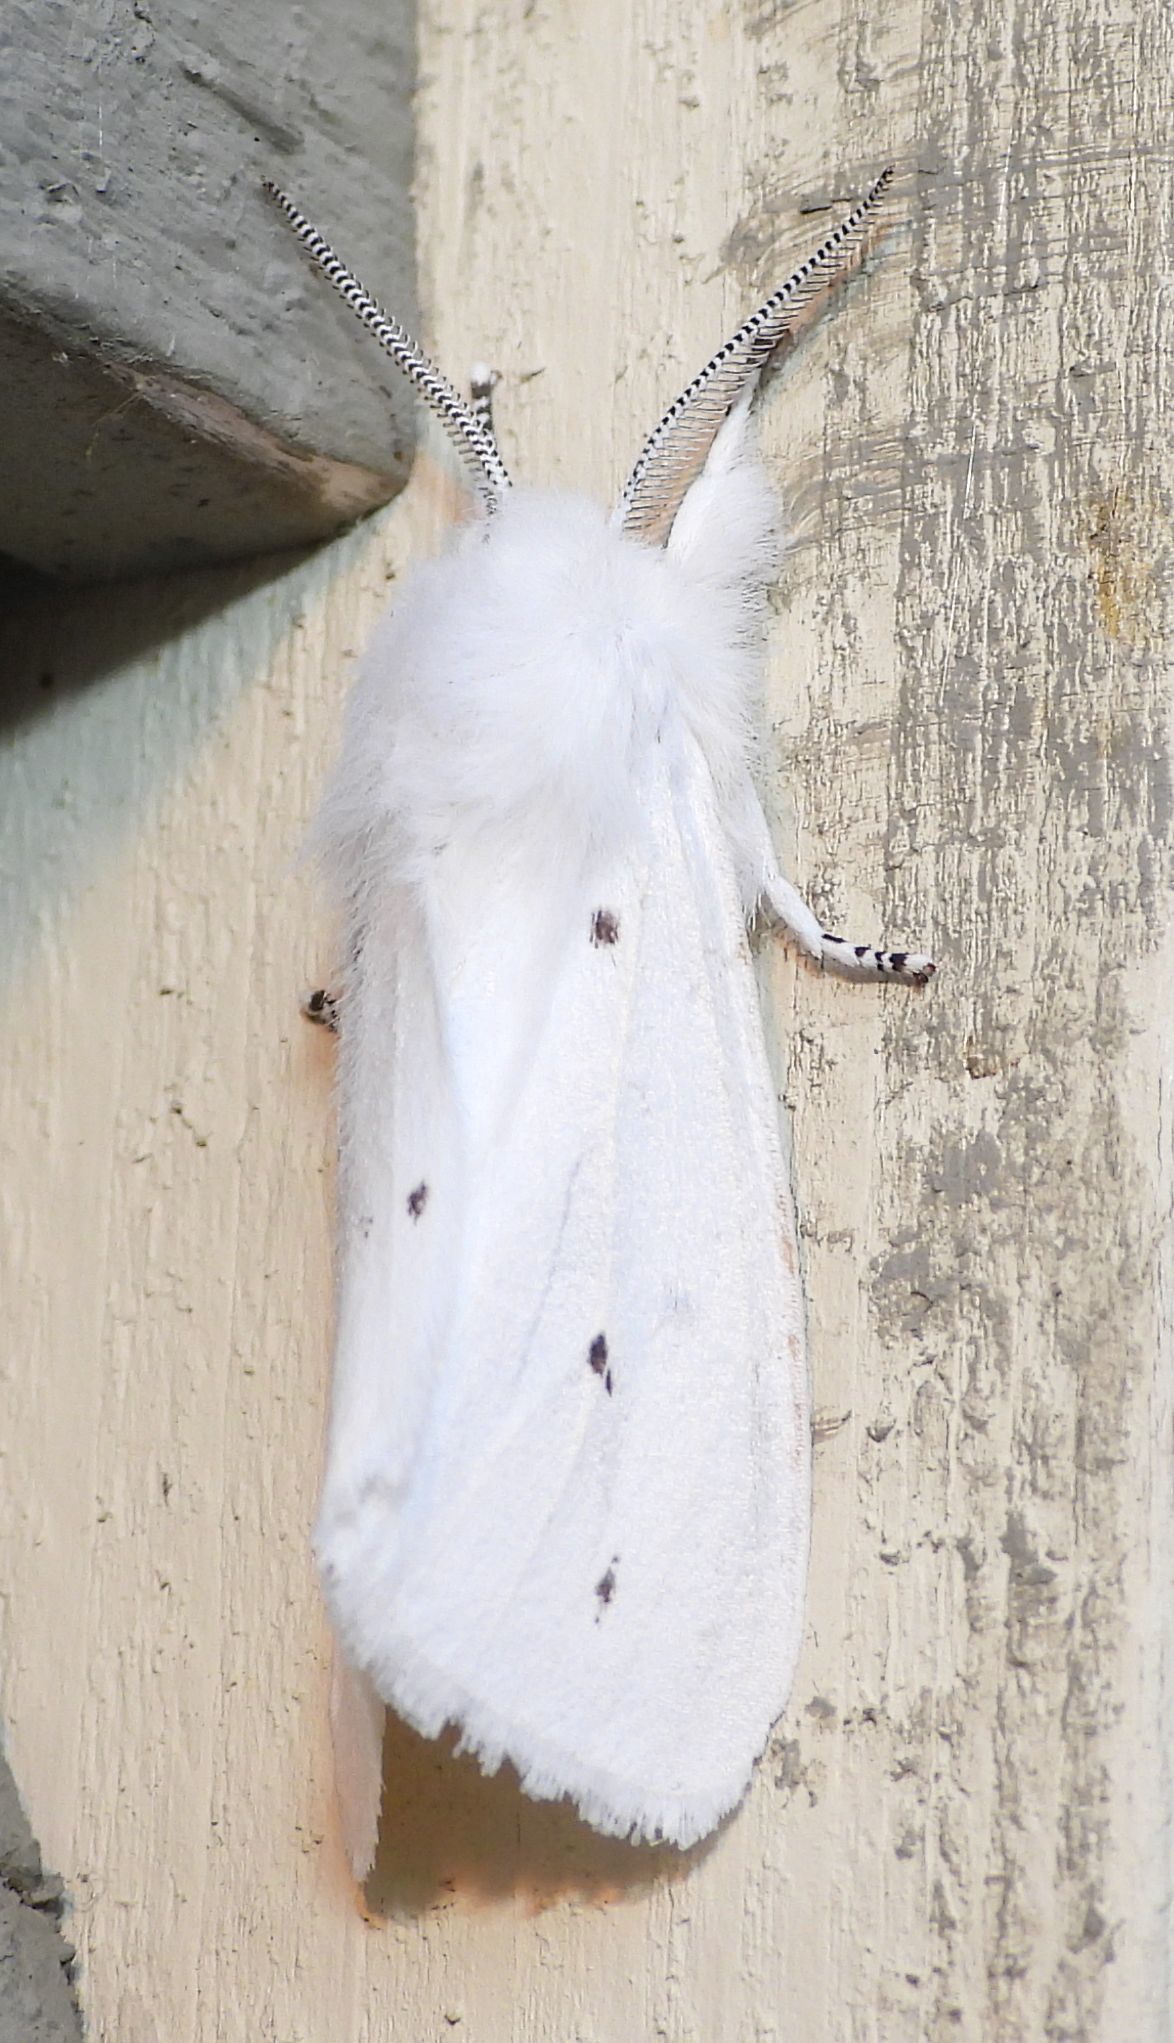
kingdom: Animalia
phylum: Arthropoda
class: Insecta
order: Lepidoptera
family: Erebidae
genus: Spilosoma
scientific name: Spilosoma virginica
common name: Virginia tiger moth
